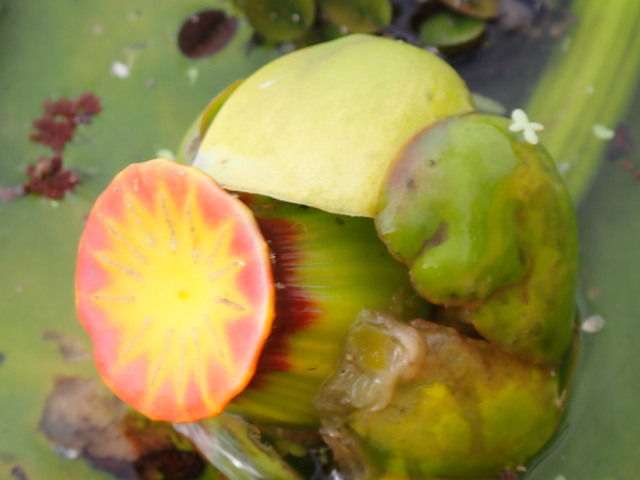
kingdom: Plantae
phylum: Tracheophyta
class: Magnoliopsida
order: Nymphaeales
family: Nymphaeaceae
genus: Nuphar
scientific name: Nuphar advena
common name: Spatter-dock
